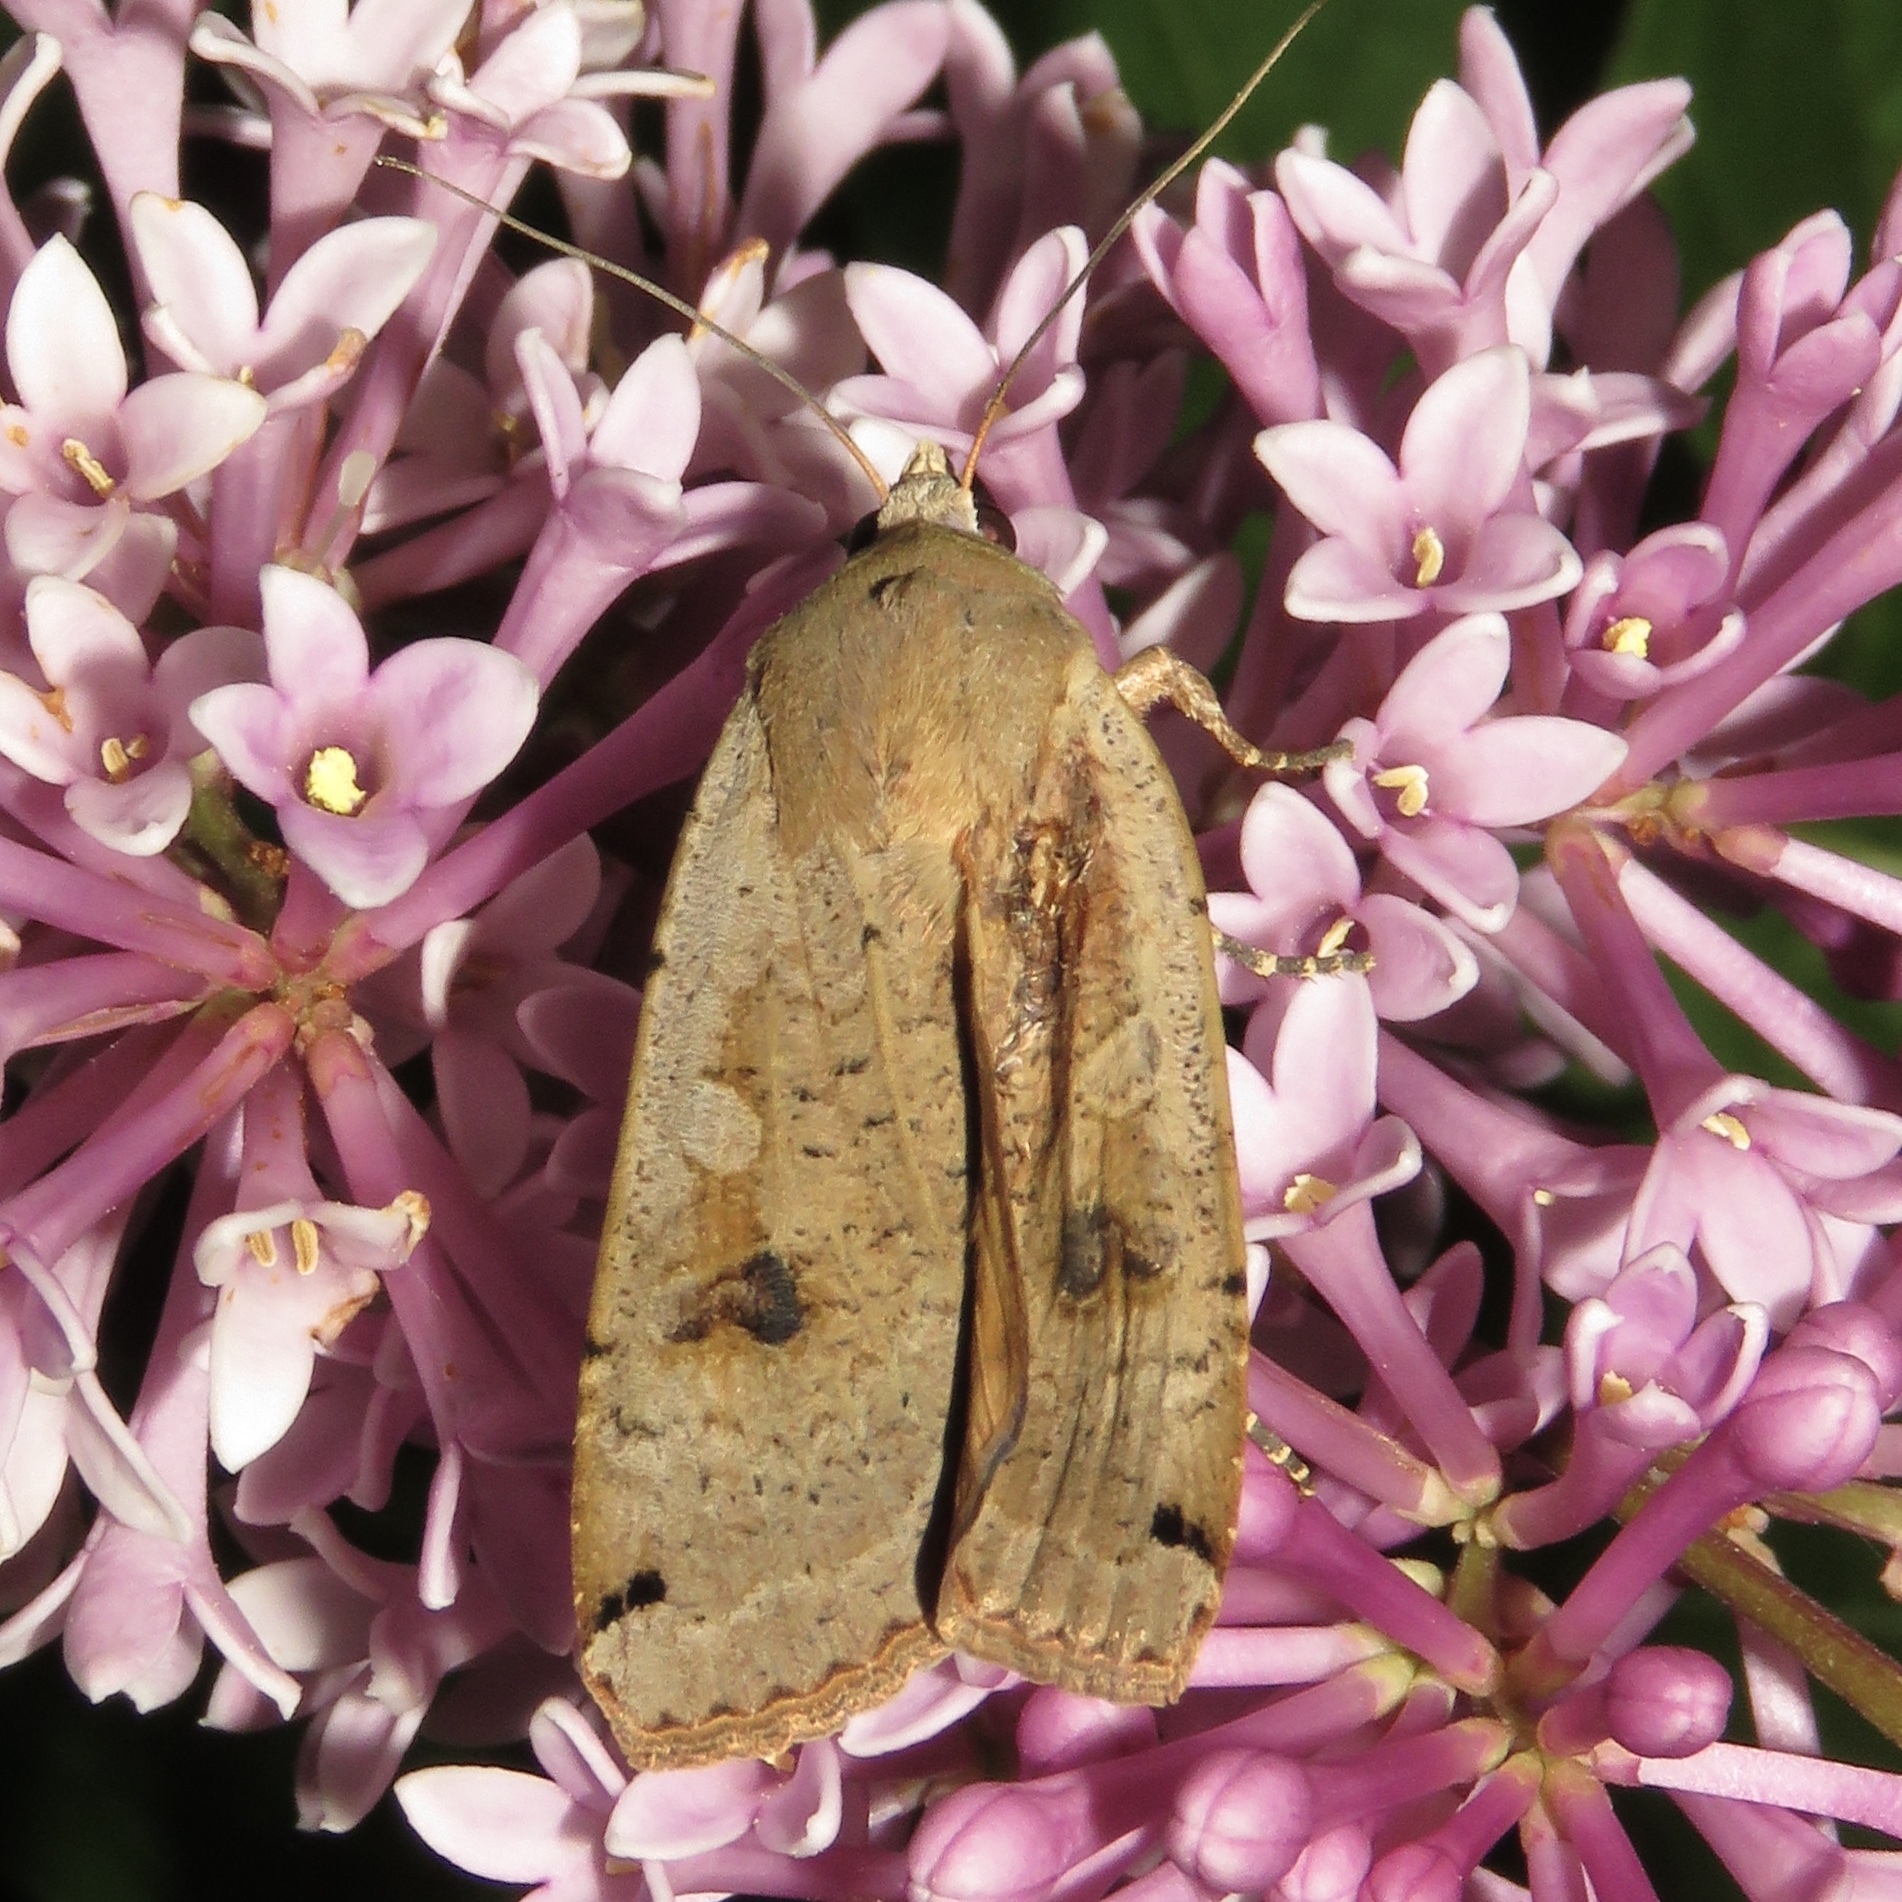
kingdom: Animalia
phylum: Arthropoda
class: Insecta
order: Lepidoptera
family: Noctuidae
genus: Noctua
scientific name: Noctua pronuba
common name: Large yellow underwing
